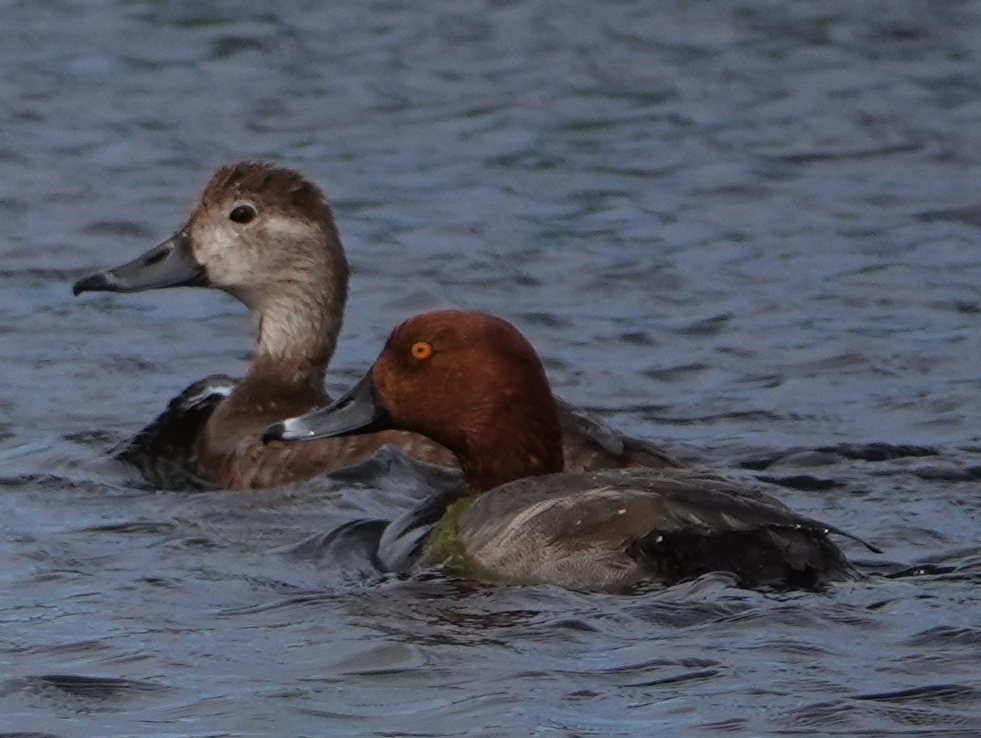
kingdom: Animalia
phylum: Chordata
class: Aves
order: Anseriformes
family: Anatidae
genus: Aythya
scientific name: Aythya americana
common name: Redhead
